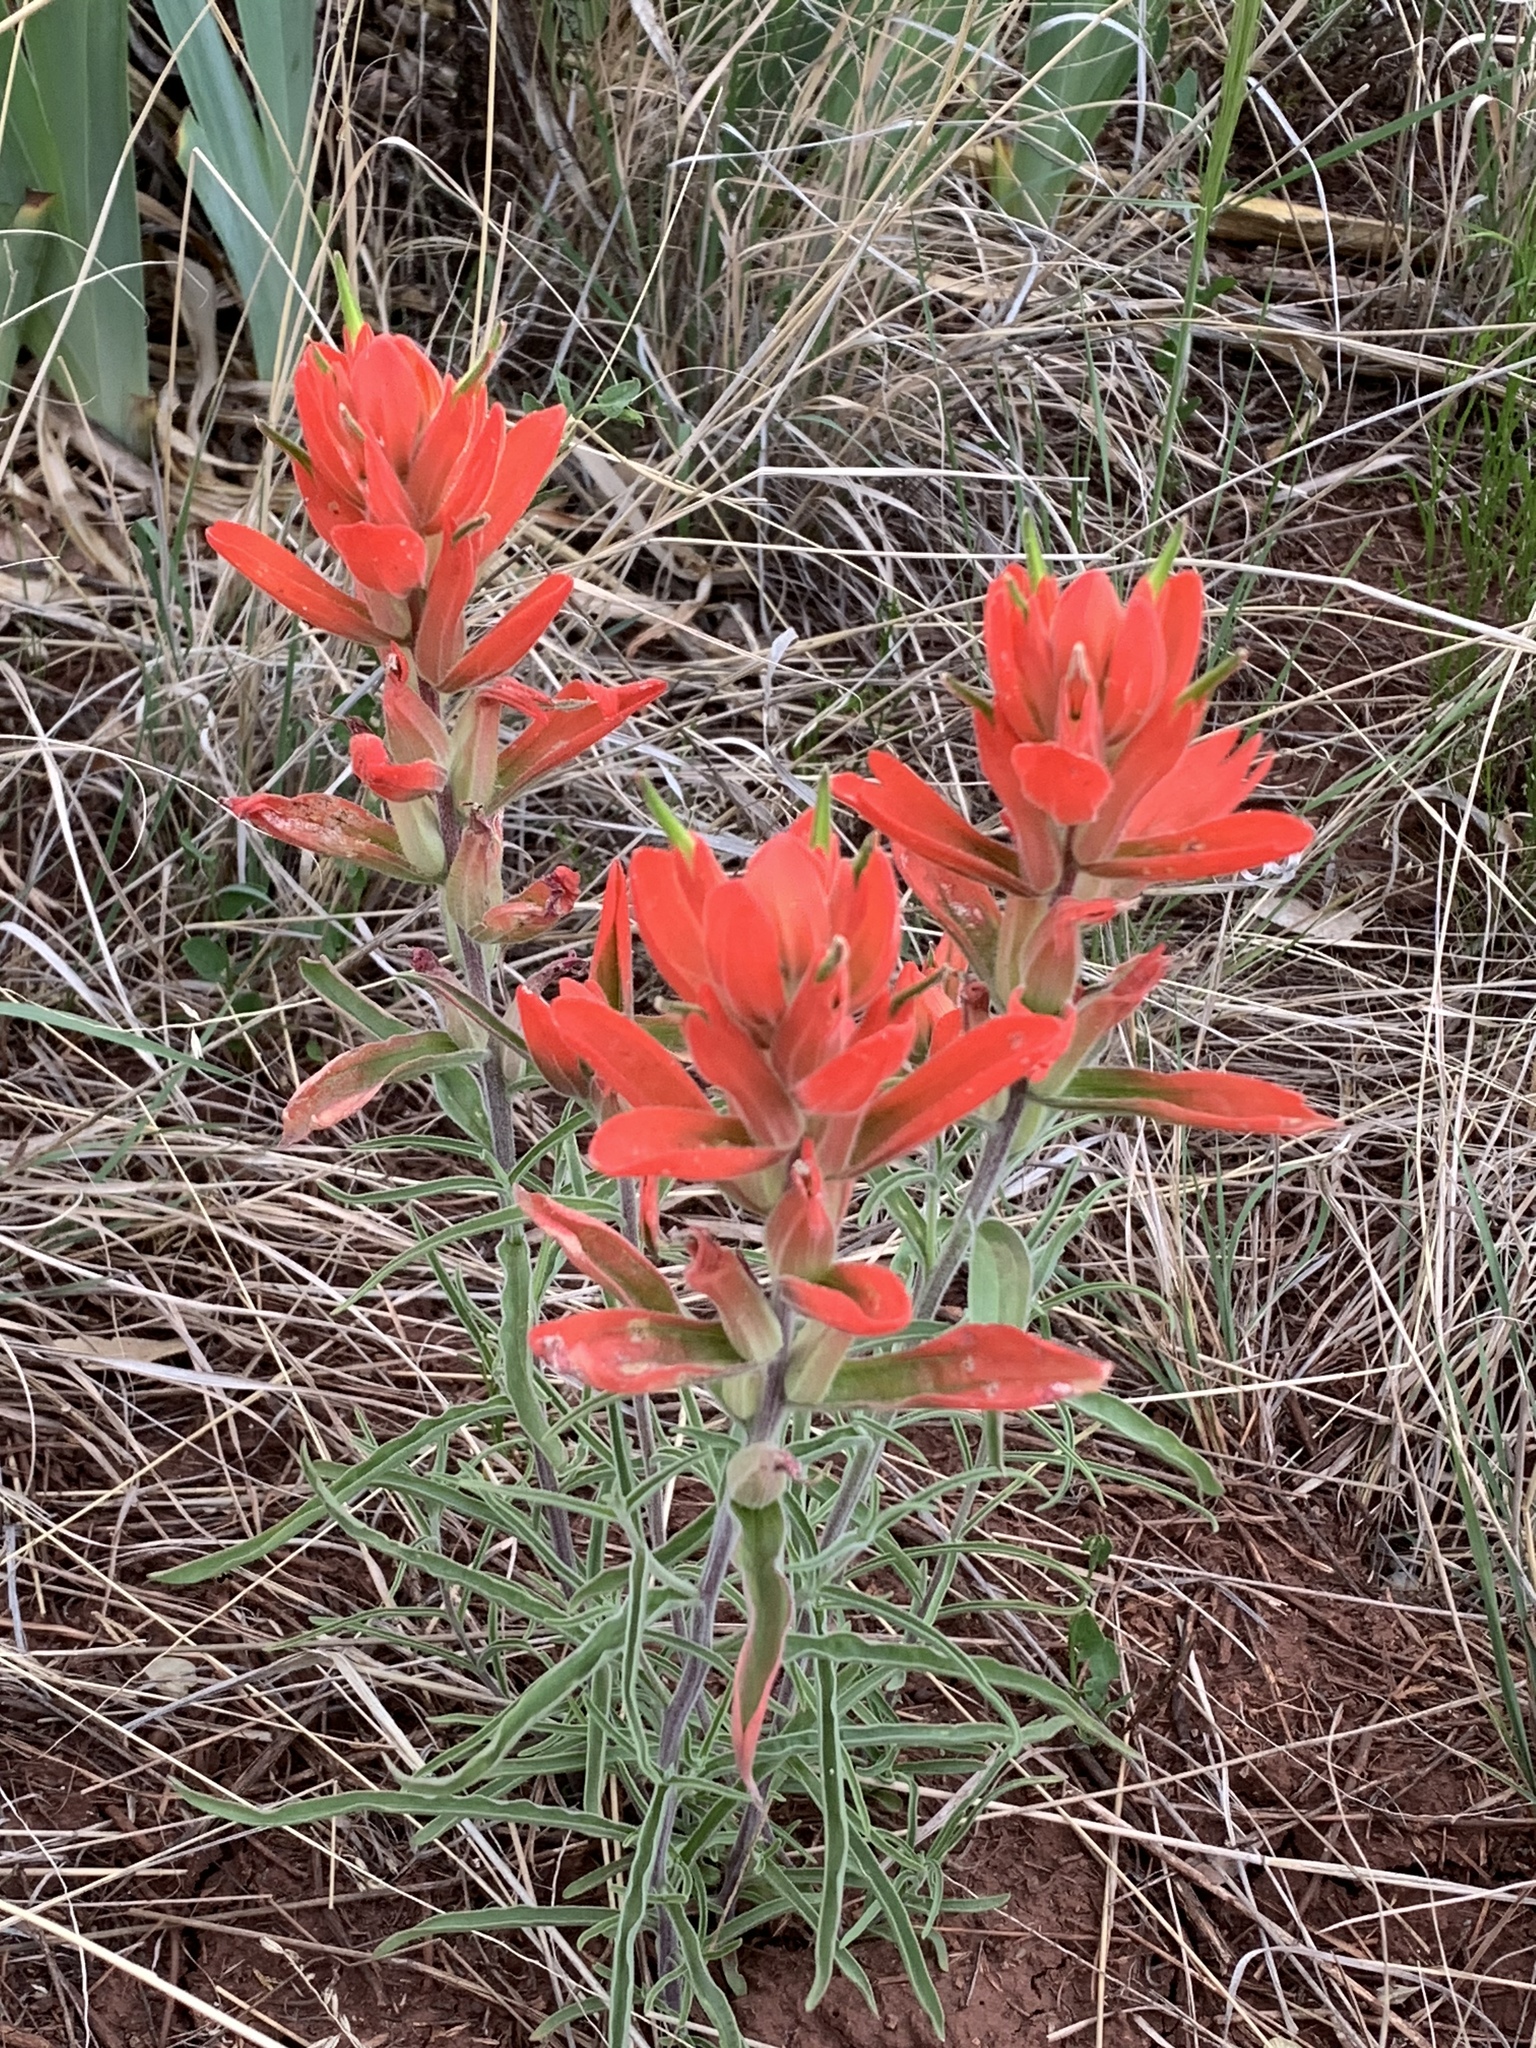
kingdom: Plantae
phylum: Tracheophyta
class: Magnoliopsida
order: Lamiales
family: Orobanchaceae
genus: Castilleja
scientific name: Castilleja integra
